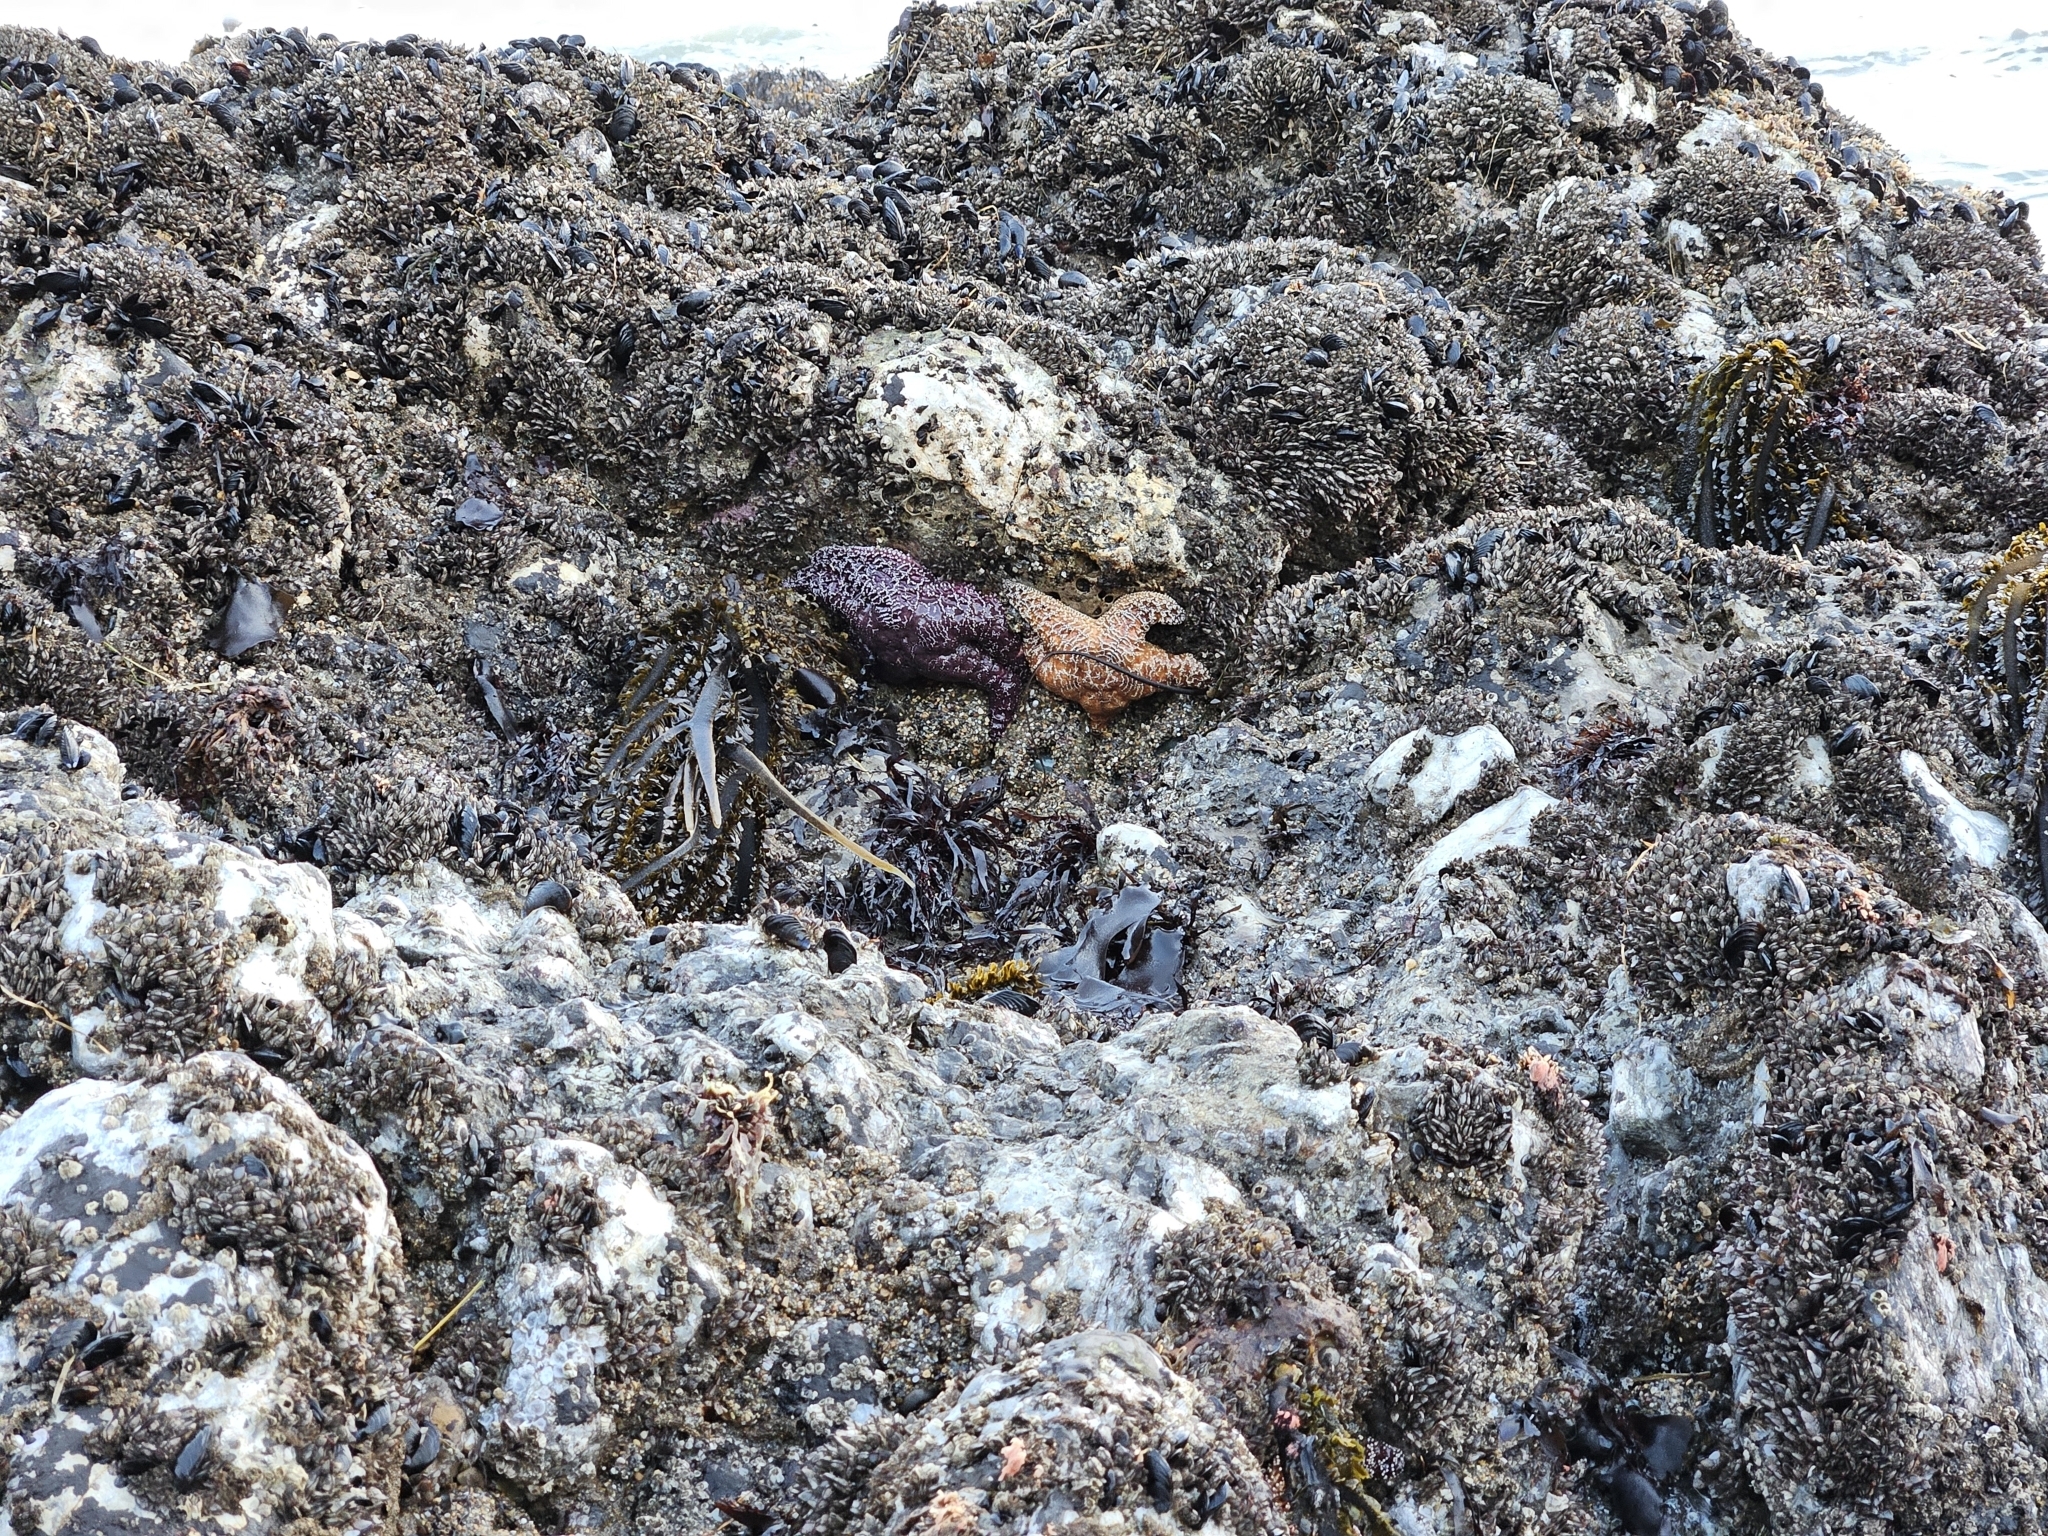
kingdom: Animalia
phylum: Echinodermata
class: Asteroidea
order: Forcipulatida
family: Asteriidae
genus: Pisaster
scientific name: Pisaster ochraceus
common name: Ochre stars
